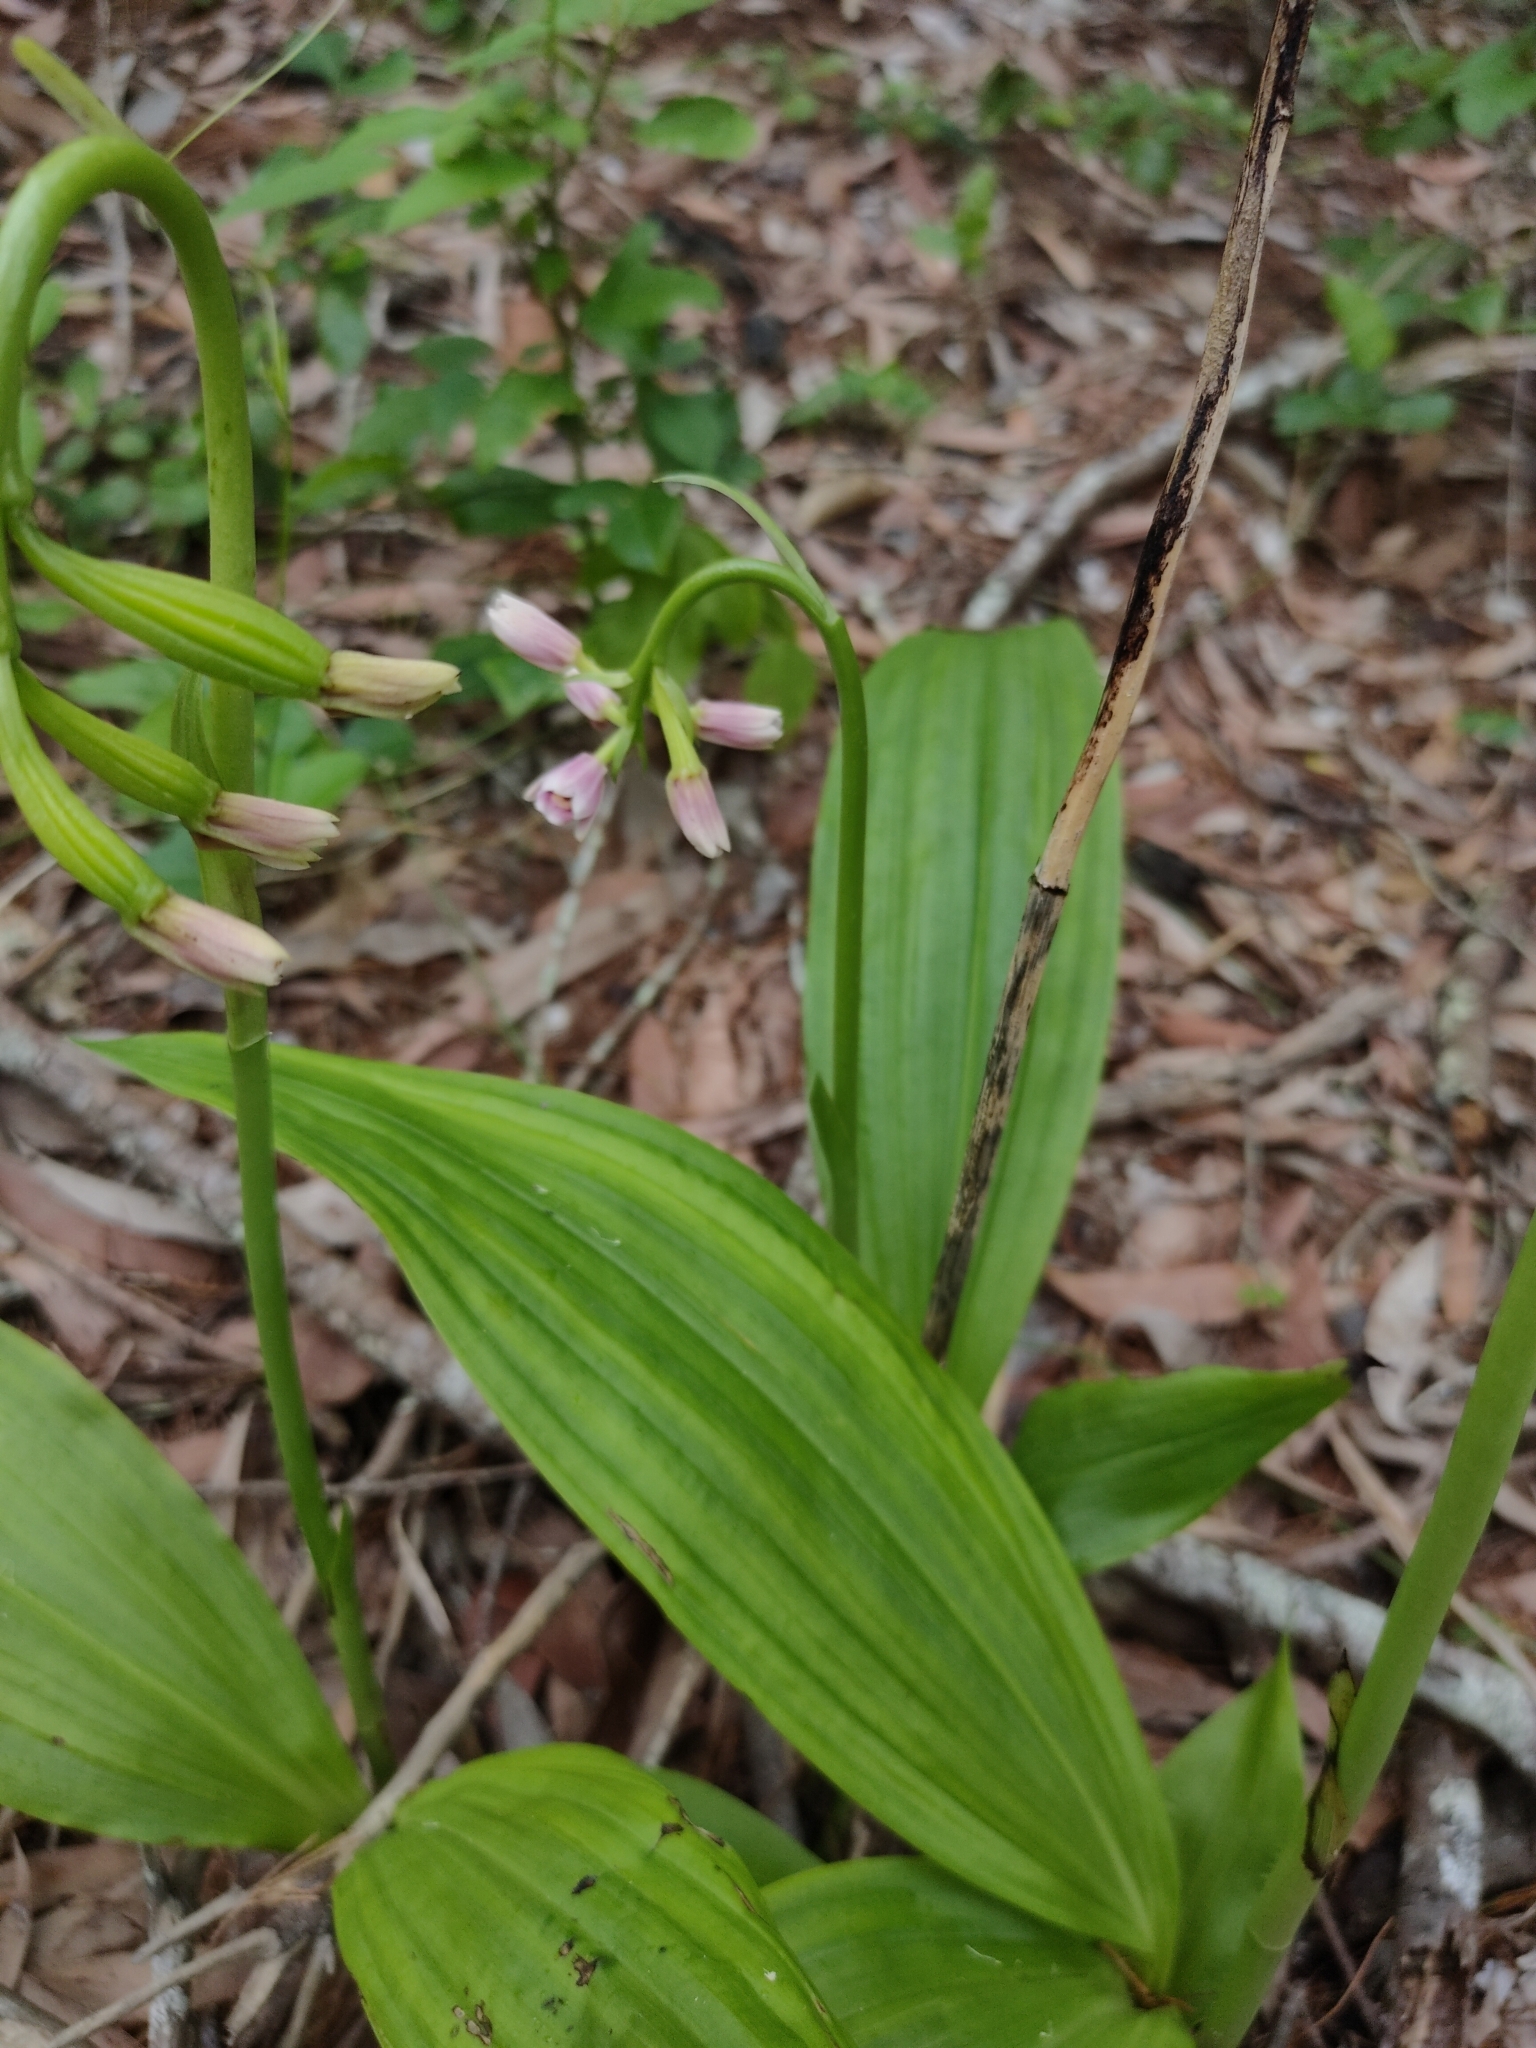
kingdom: Plantae
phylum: Tracheophyta
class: Liliopsida
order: Asparagales
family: Orchidaceae
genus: Eulophia
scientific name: Eulophia cernua
